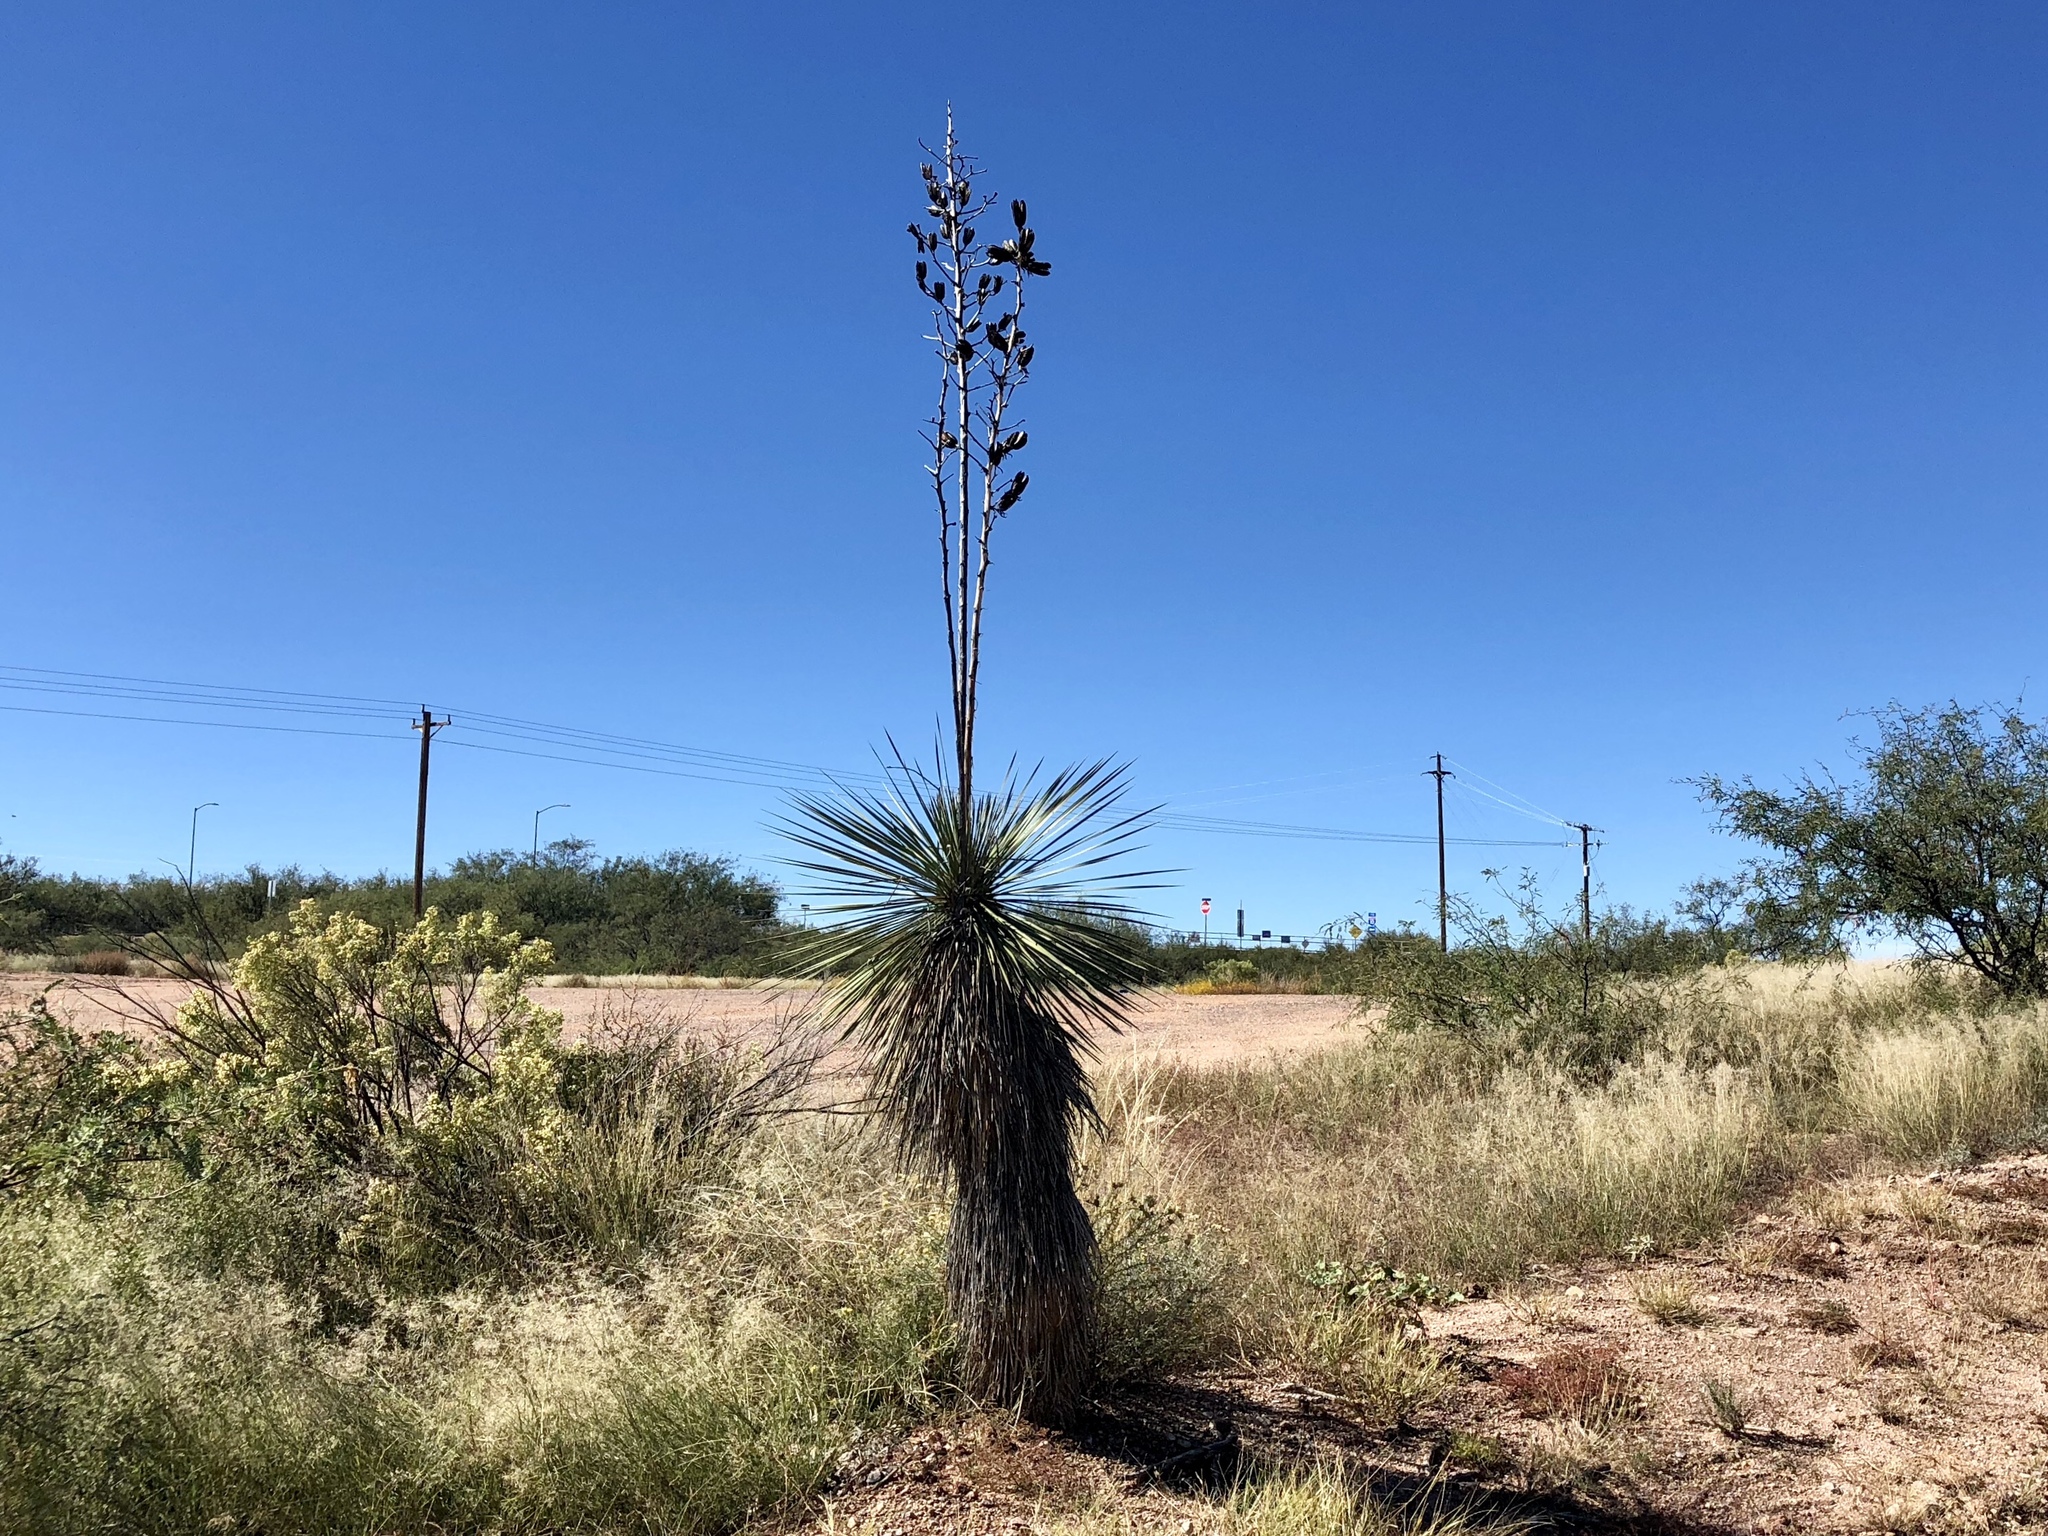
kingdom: Plantae
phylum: Tracheophyta
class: Liliopsida
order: Asparagales
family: Asparagaceae
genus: Yucca
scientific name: Yucca elata
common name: Palmella
